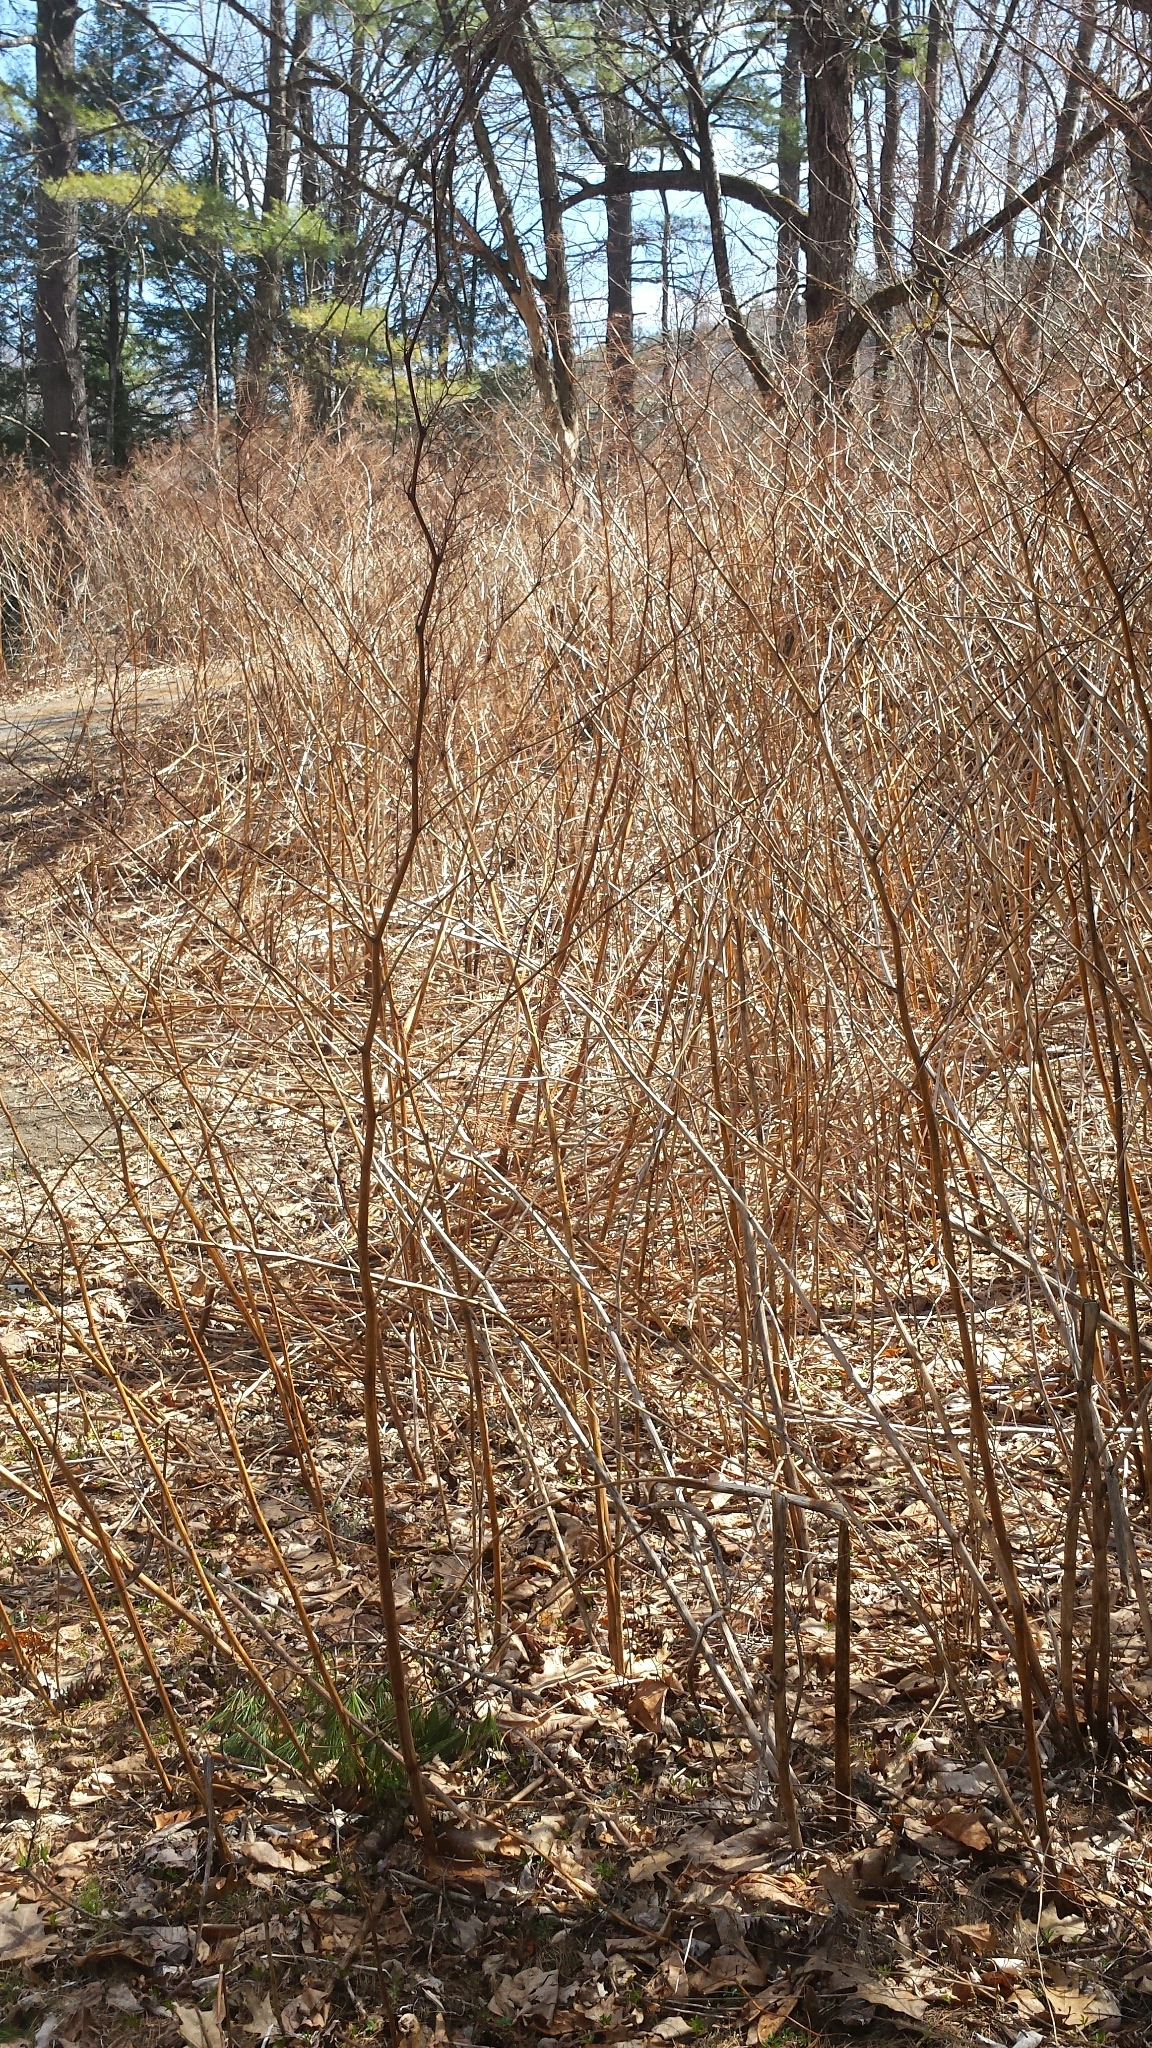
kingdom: Plantae
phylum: Tracheophyta
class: Magnoliopsida
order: Caryophyllales
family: Polygonaceae
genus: Reynoutria
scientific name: Reynoutria japonica
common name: Japanese knotweed
